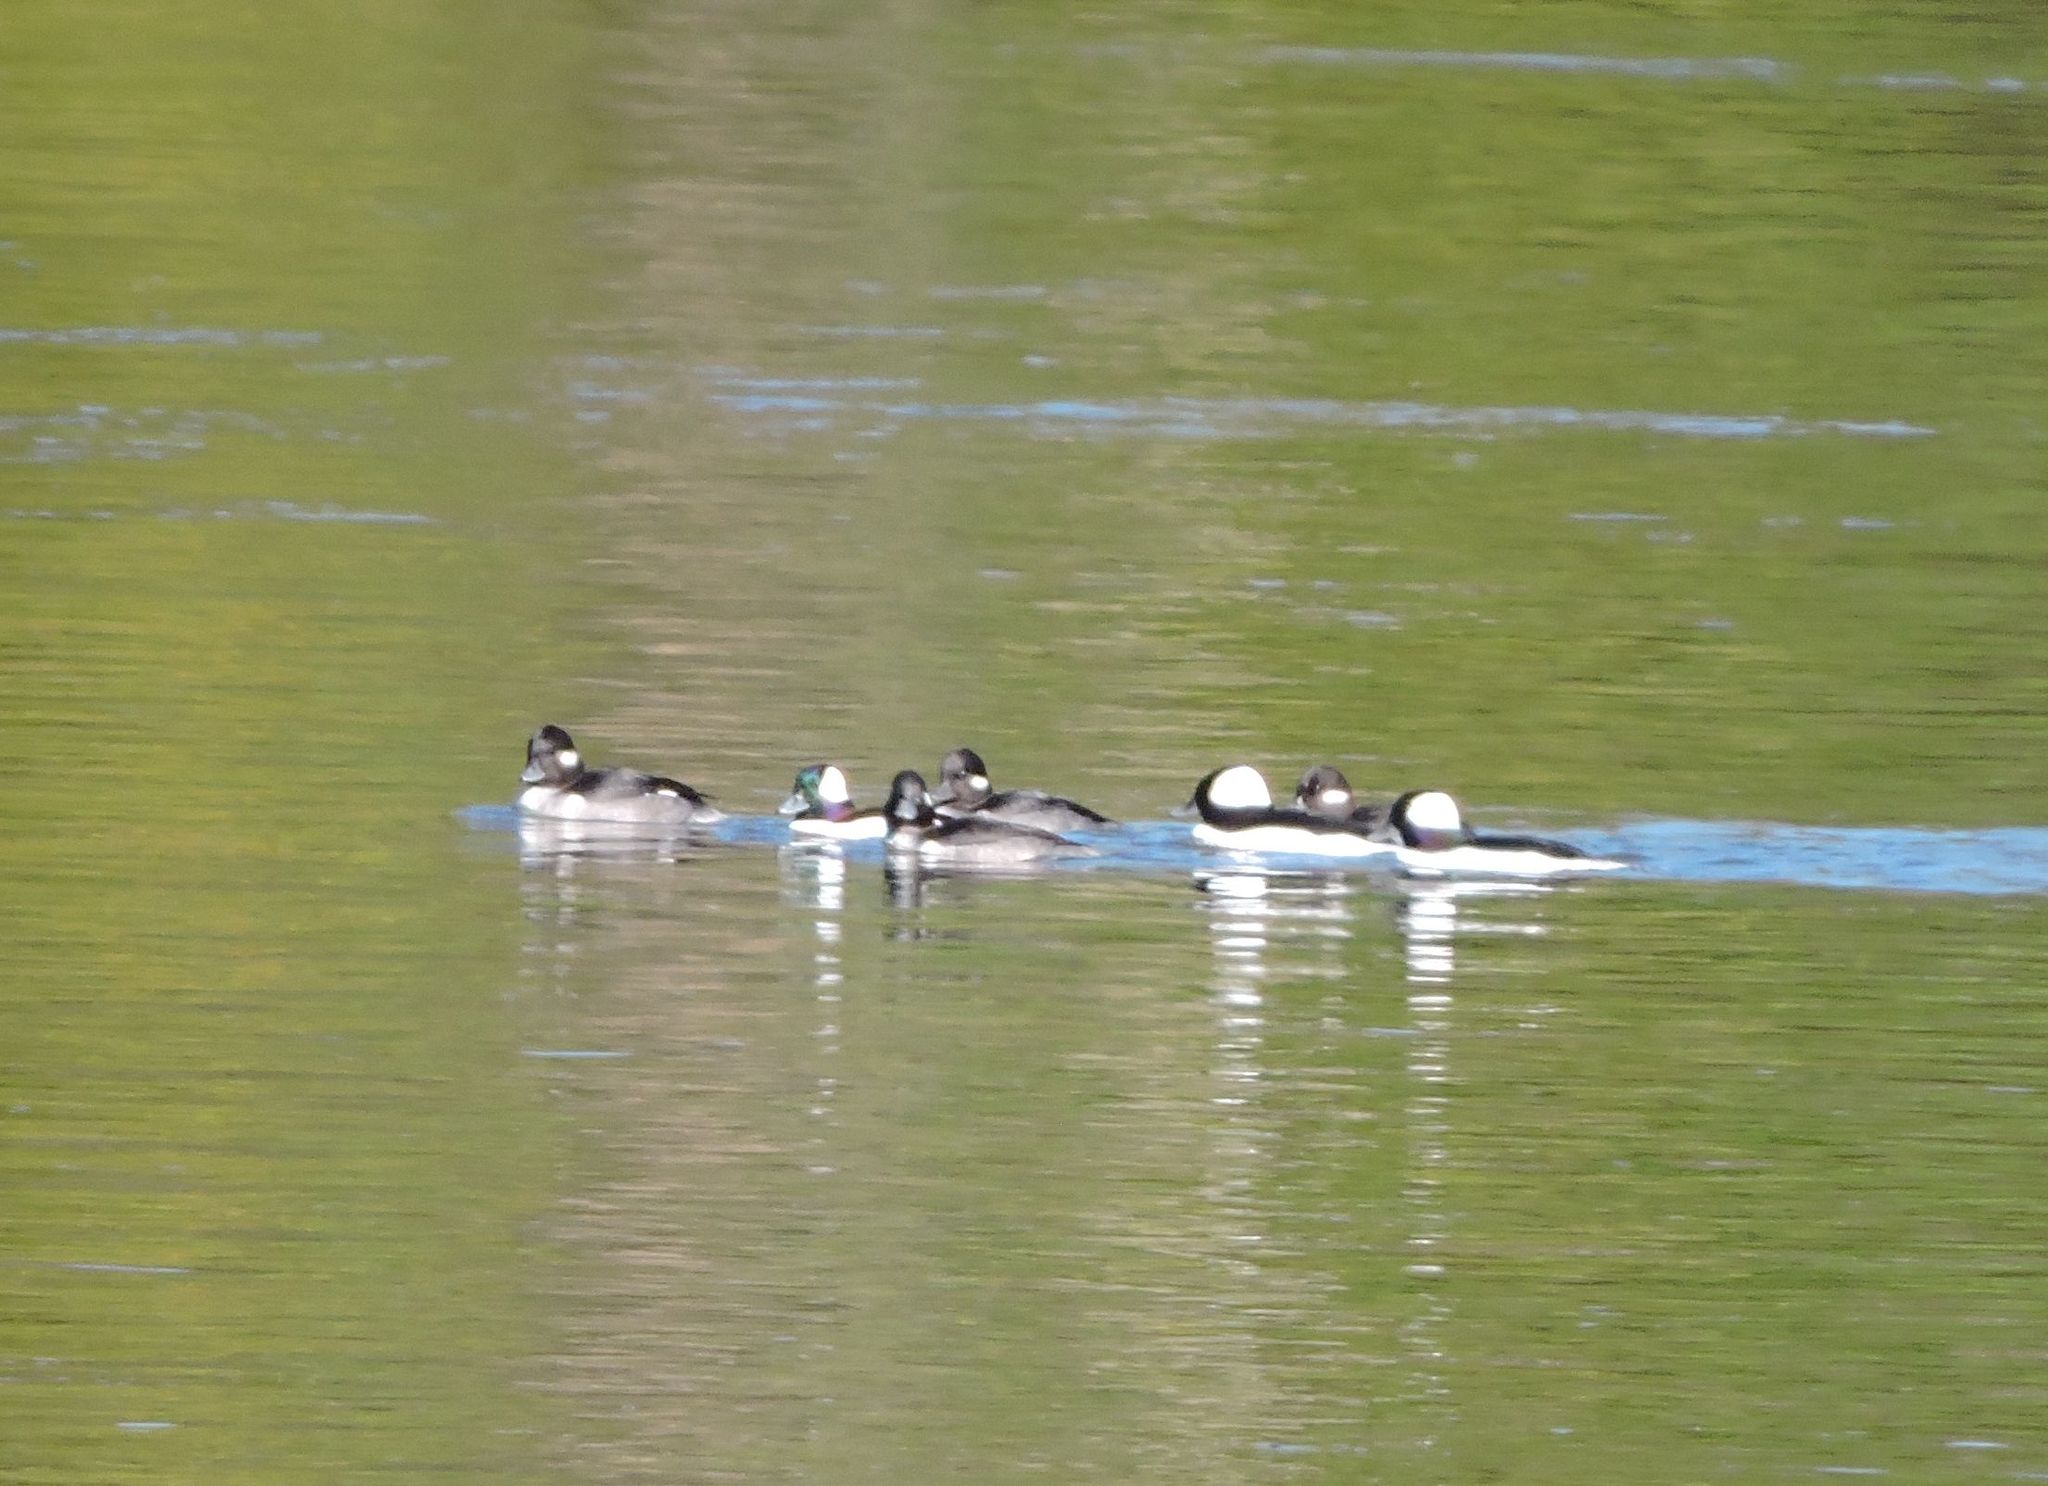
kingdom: Animalia
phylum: Chordata
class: Aves
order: Anseriformes
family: Anatidae
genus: Bucephala
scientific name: Bucephala albeola
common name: Bufflehead
